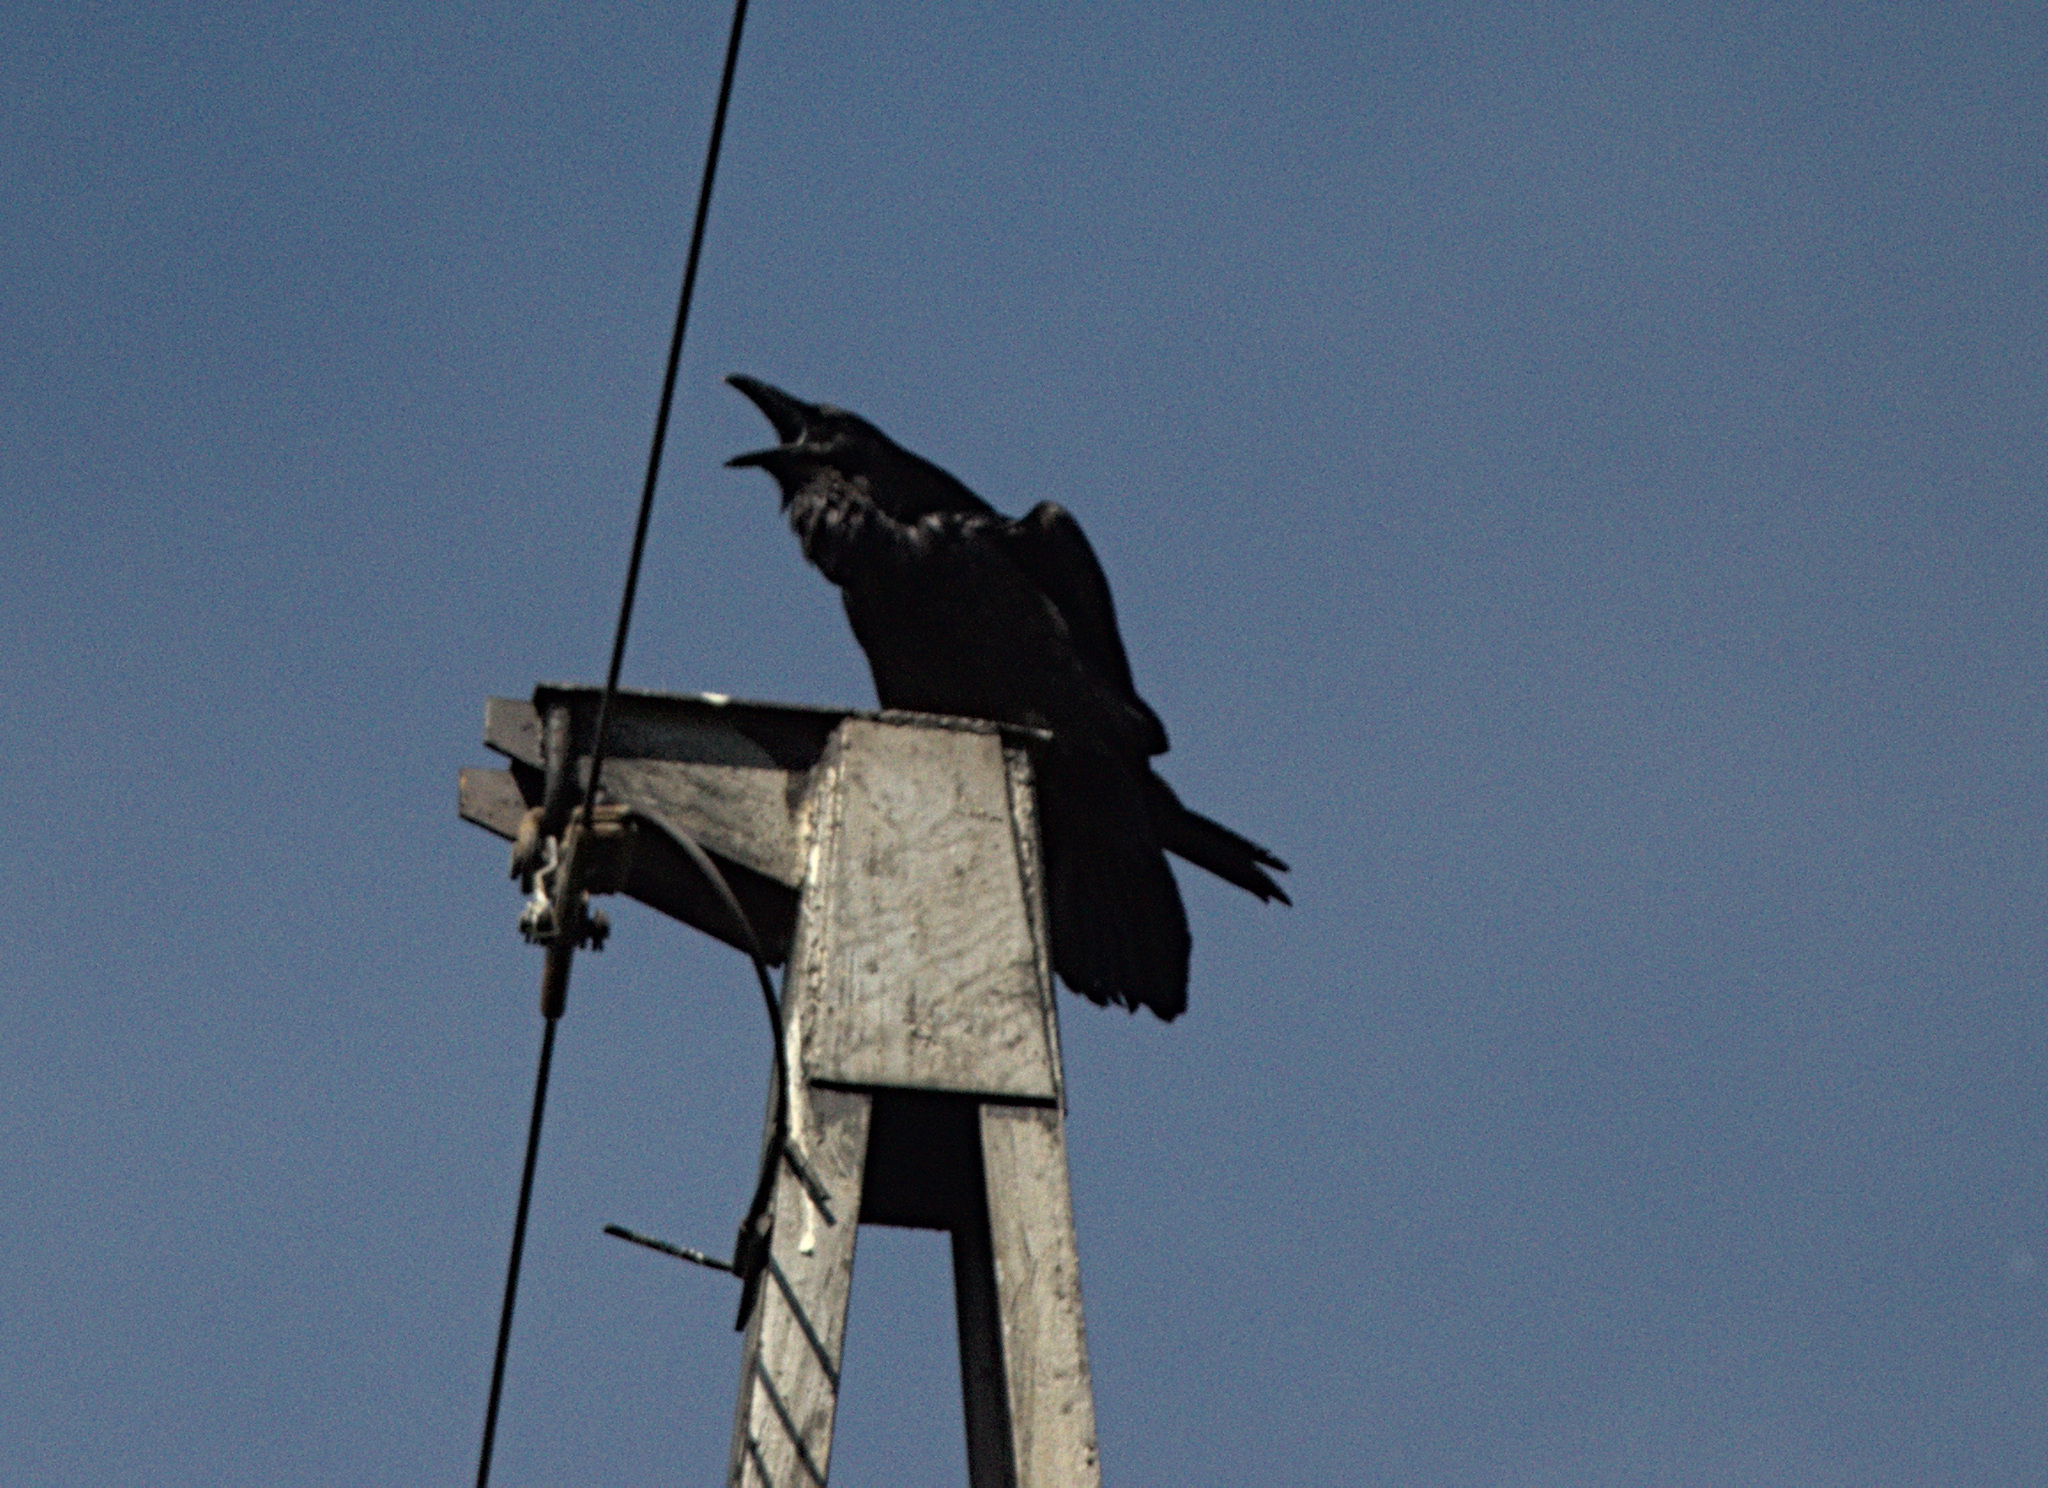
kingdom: Animalia
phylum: Chordata
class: Aves
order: Passeriformes
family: Corvidae
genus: Corvus
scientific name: Corvus corax
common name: Common raven
